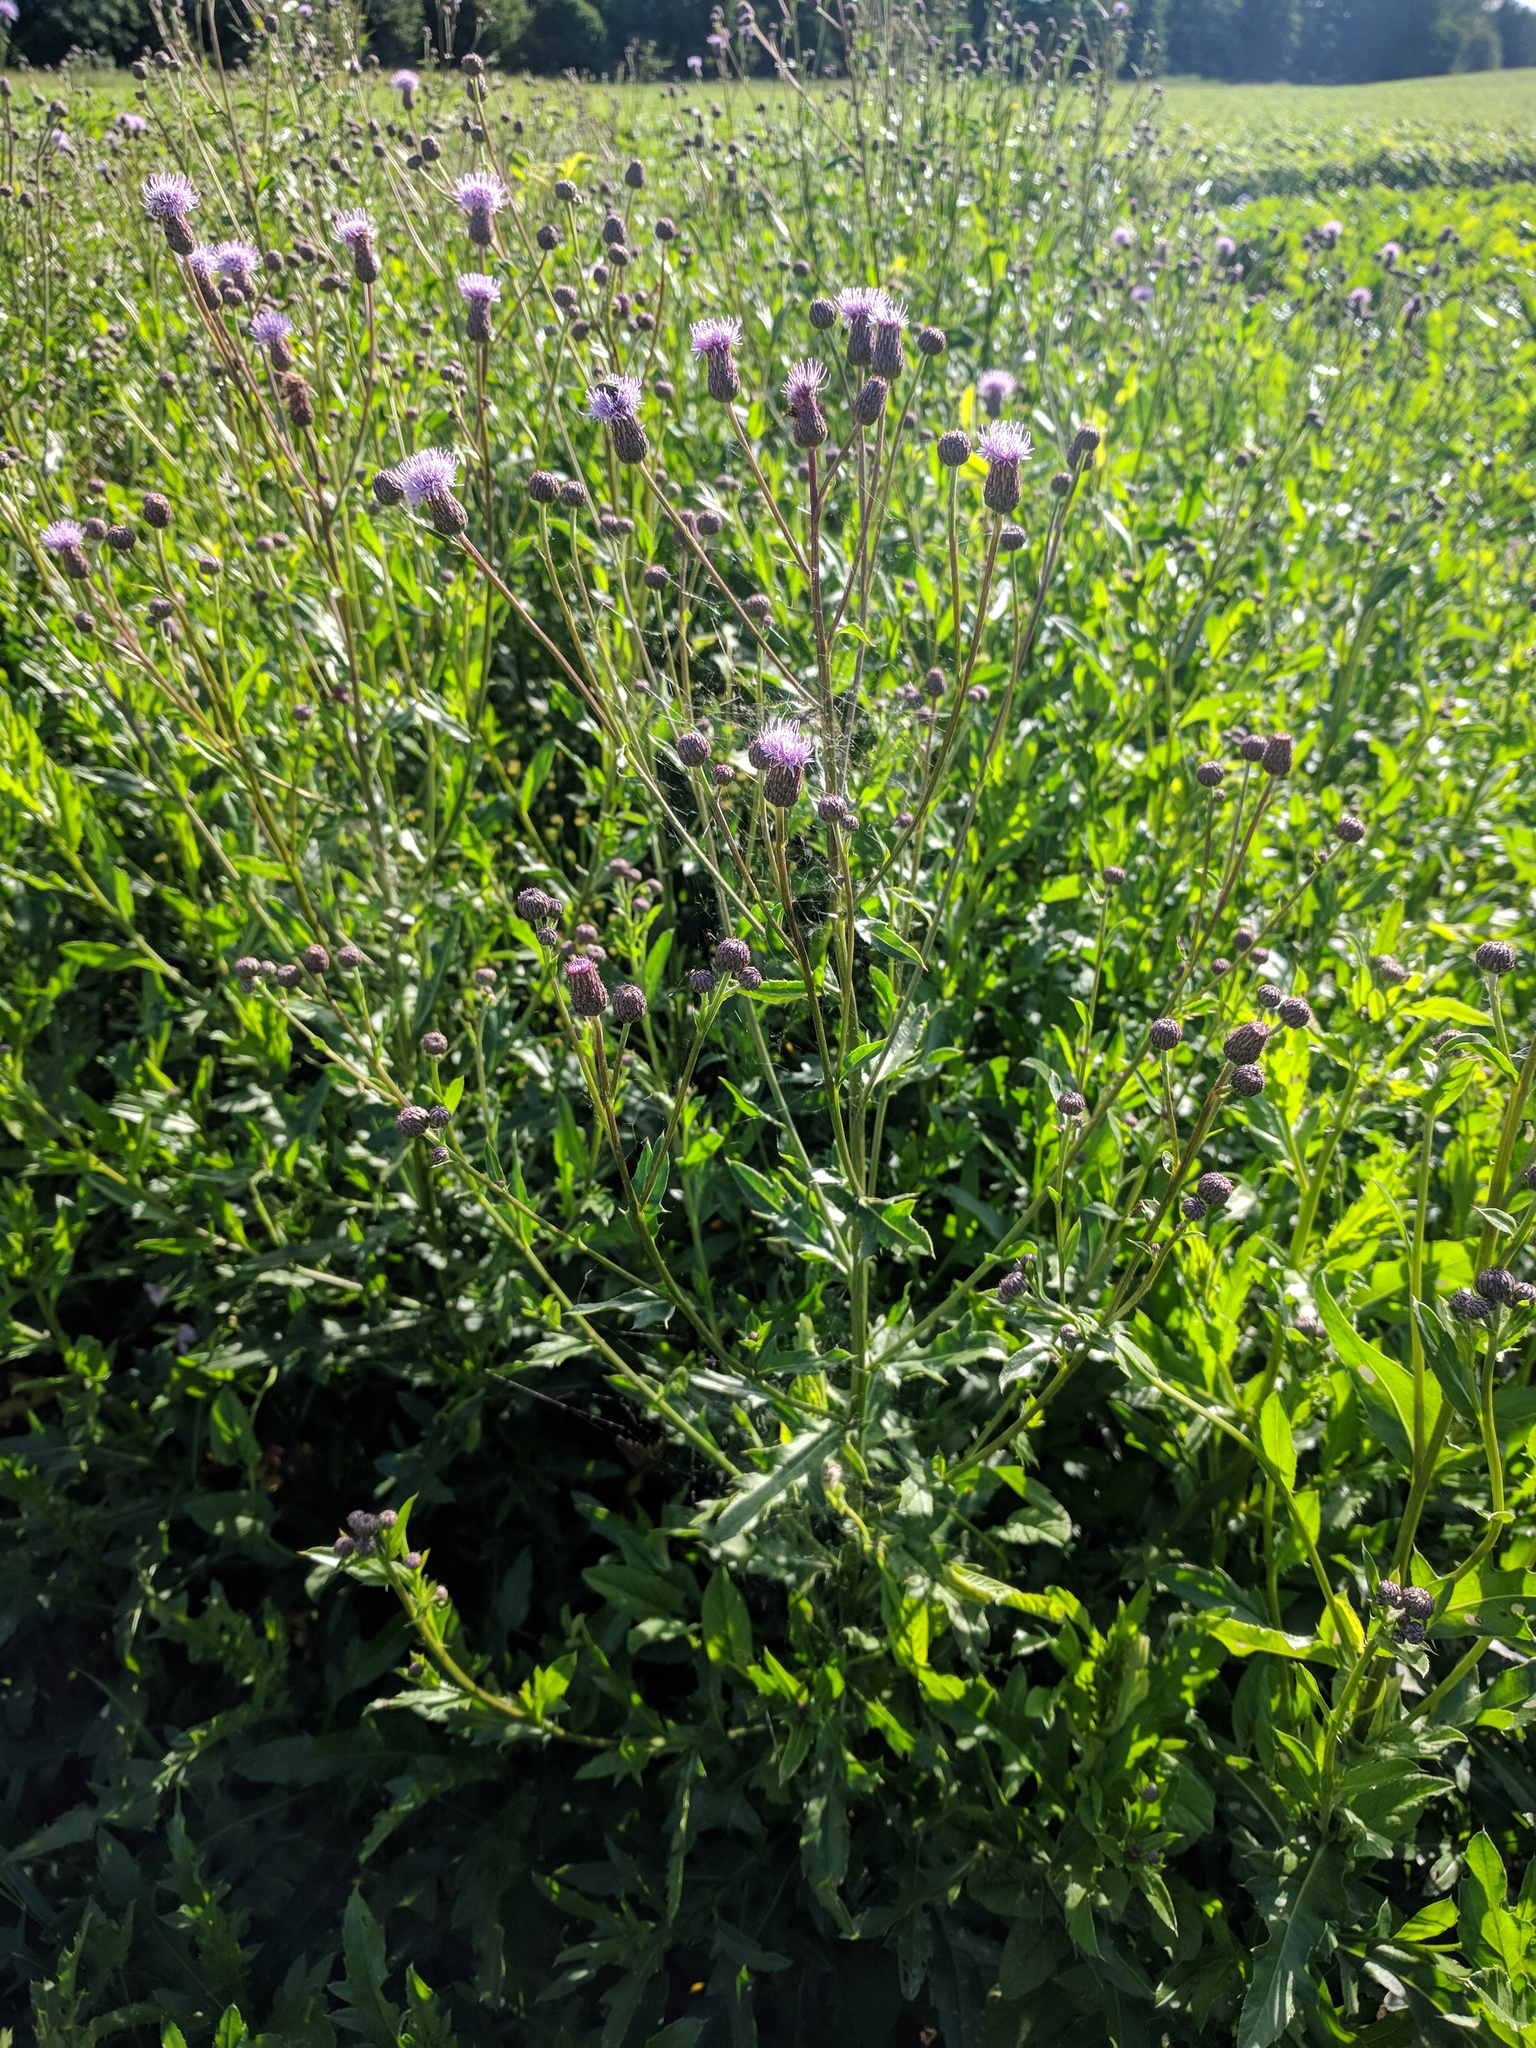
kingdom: Plantae
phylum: Tracheophyta
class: Magnoliopsida
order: Asterales
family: Asteraceae
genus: Cirsium
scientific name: Cirsium arvense
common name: Creeping thistle
